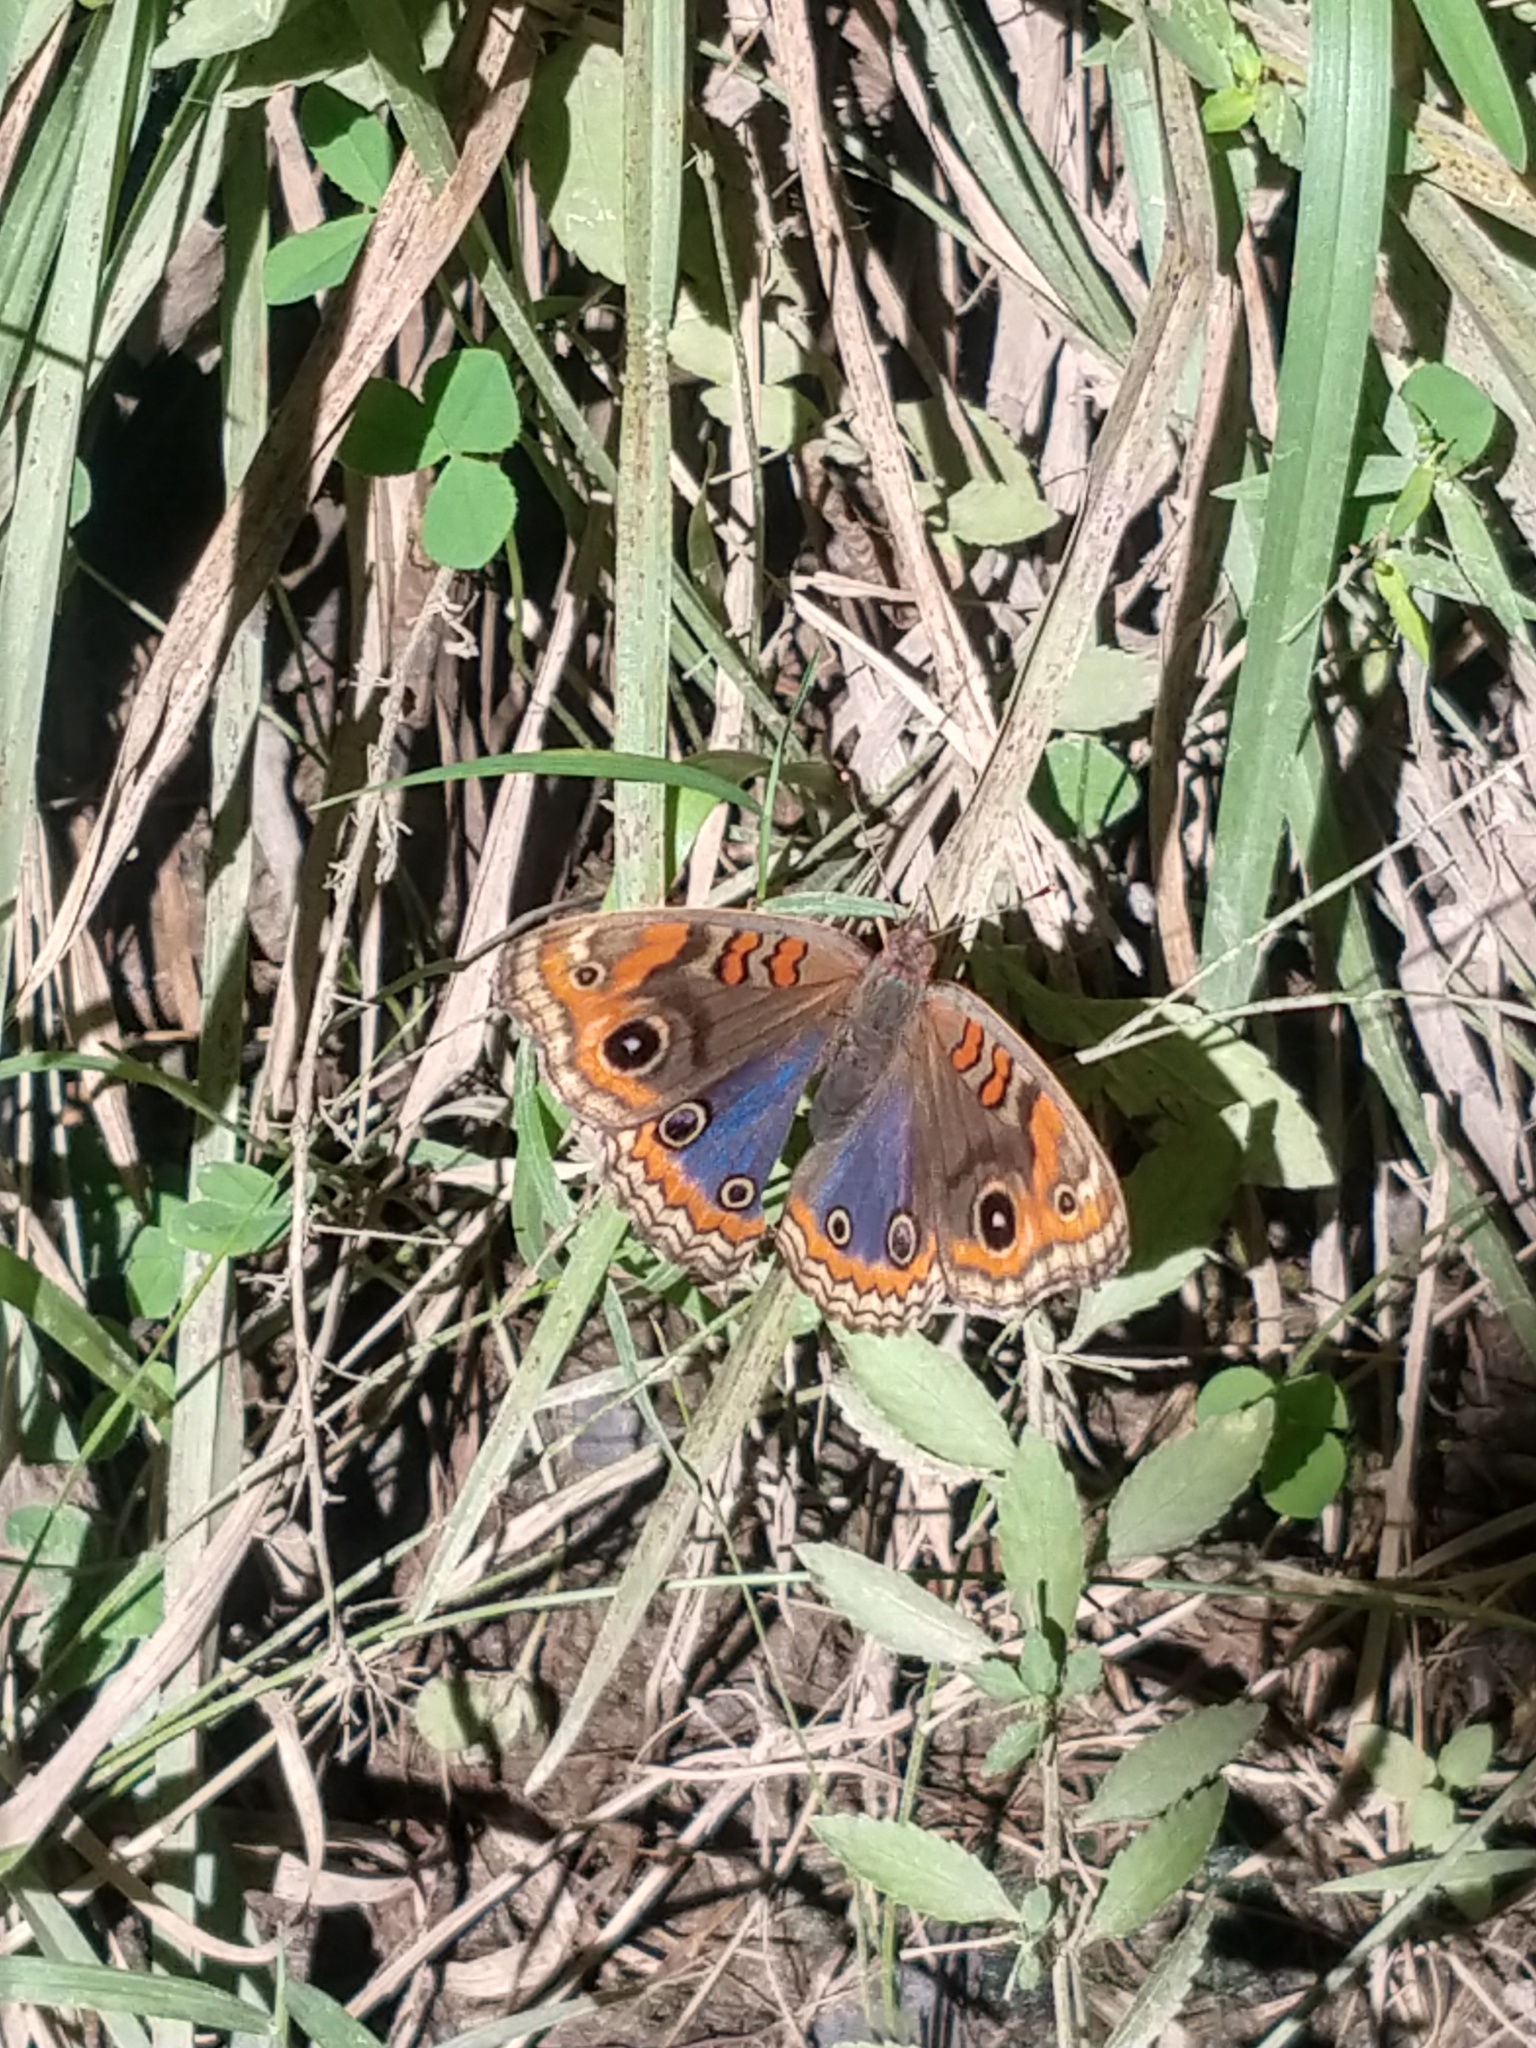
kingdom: Animalia
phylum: Arthropoda
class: Insecta
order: Lepidoptera
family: Nymphalidae
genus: Junonia
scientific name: Junonia lavinia
